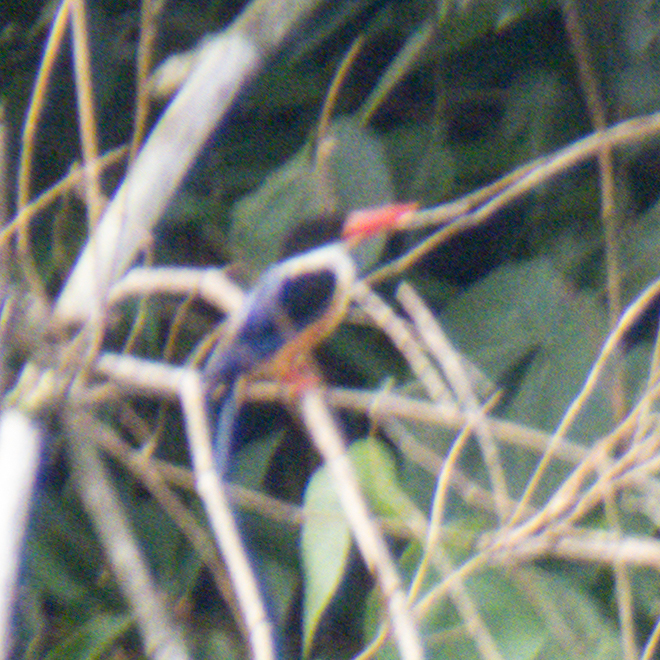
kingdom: Animalia
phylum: Chordata
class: Aves
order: Coraciiformes
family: Alcedinidae
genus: Halcyon
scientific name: Halcyon pileata
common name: Black-capped kingfisher
